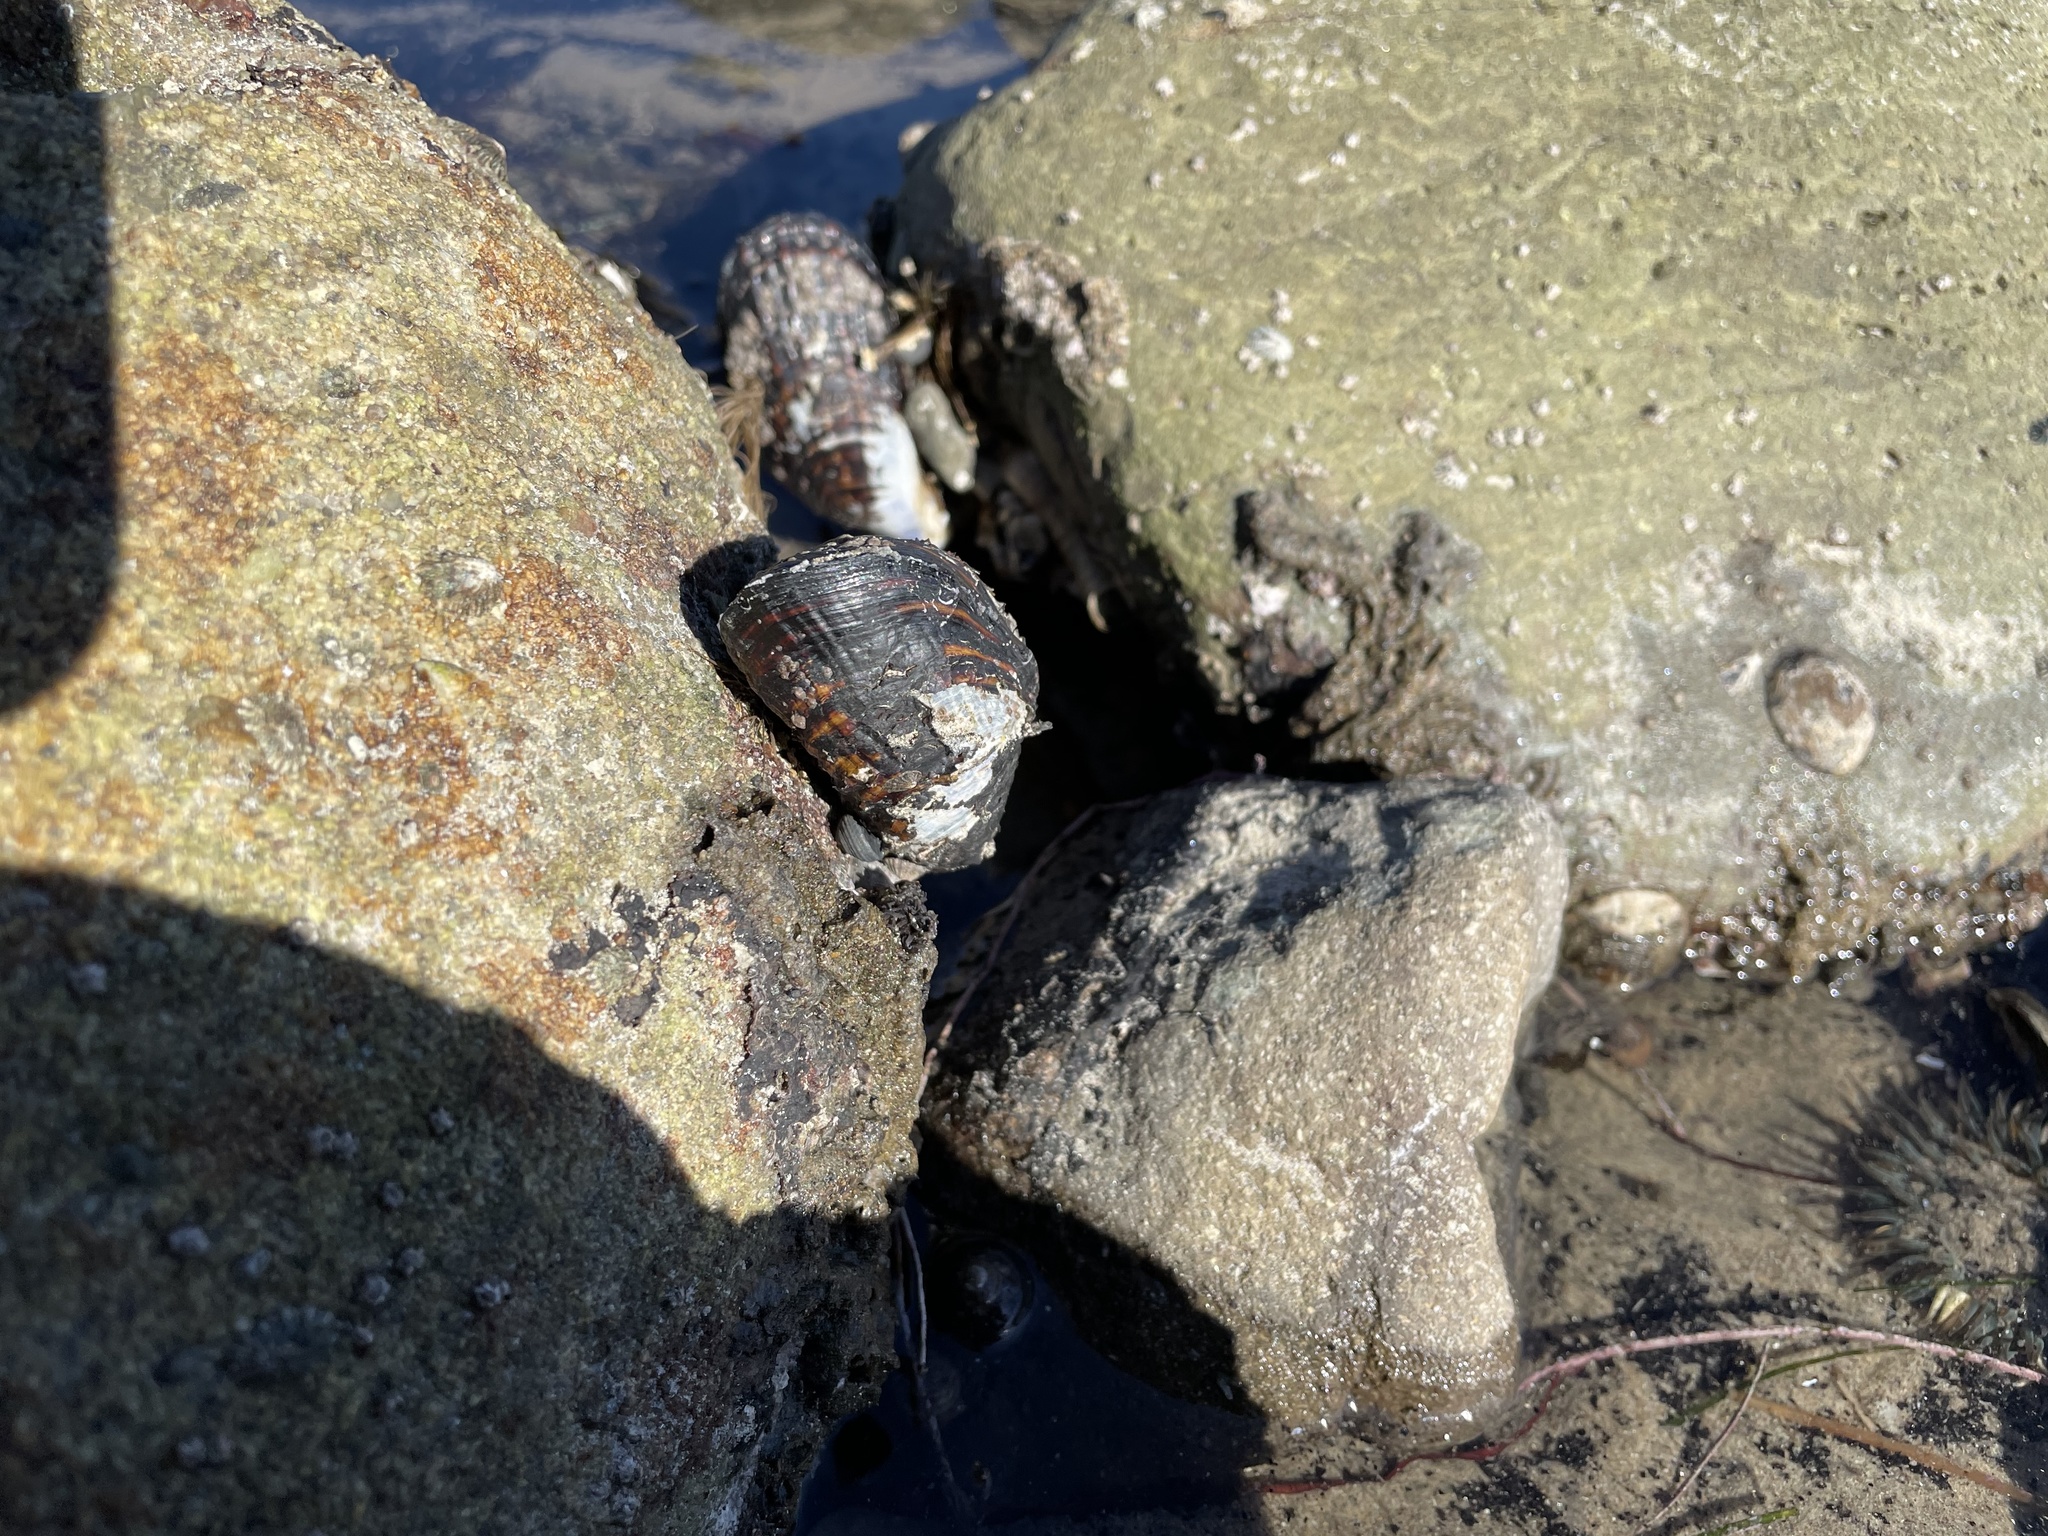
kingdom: Animalia
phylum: Mollusca
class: Bivalvia
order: Mytilida
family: Mytilidae
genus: Mytilus
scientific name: Mytilus californianus
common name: California mussel
